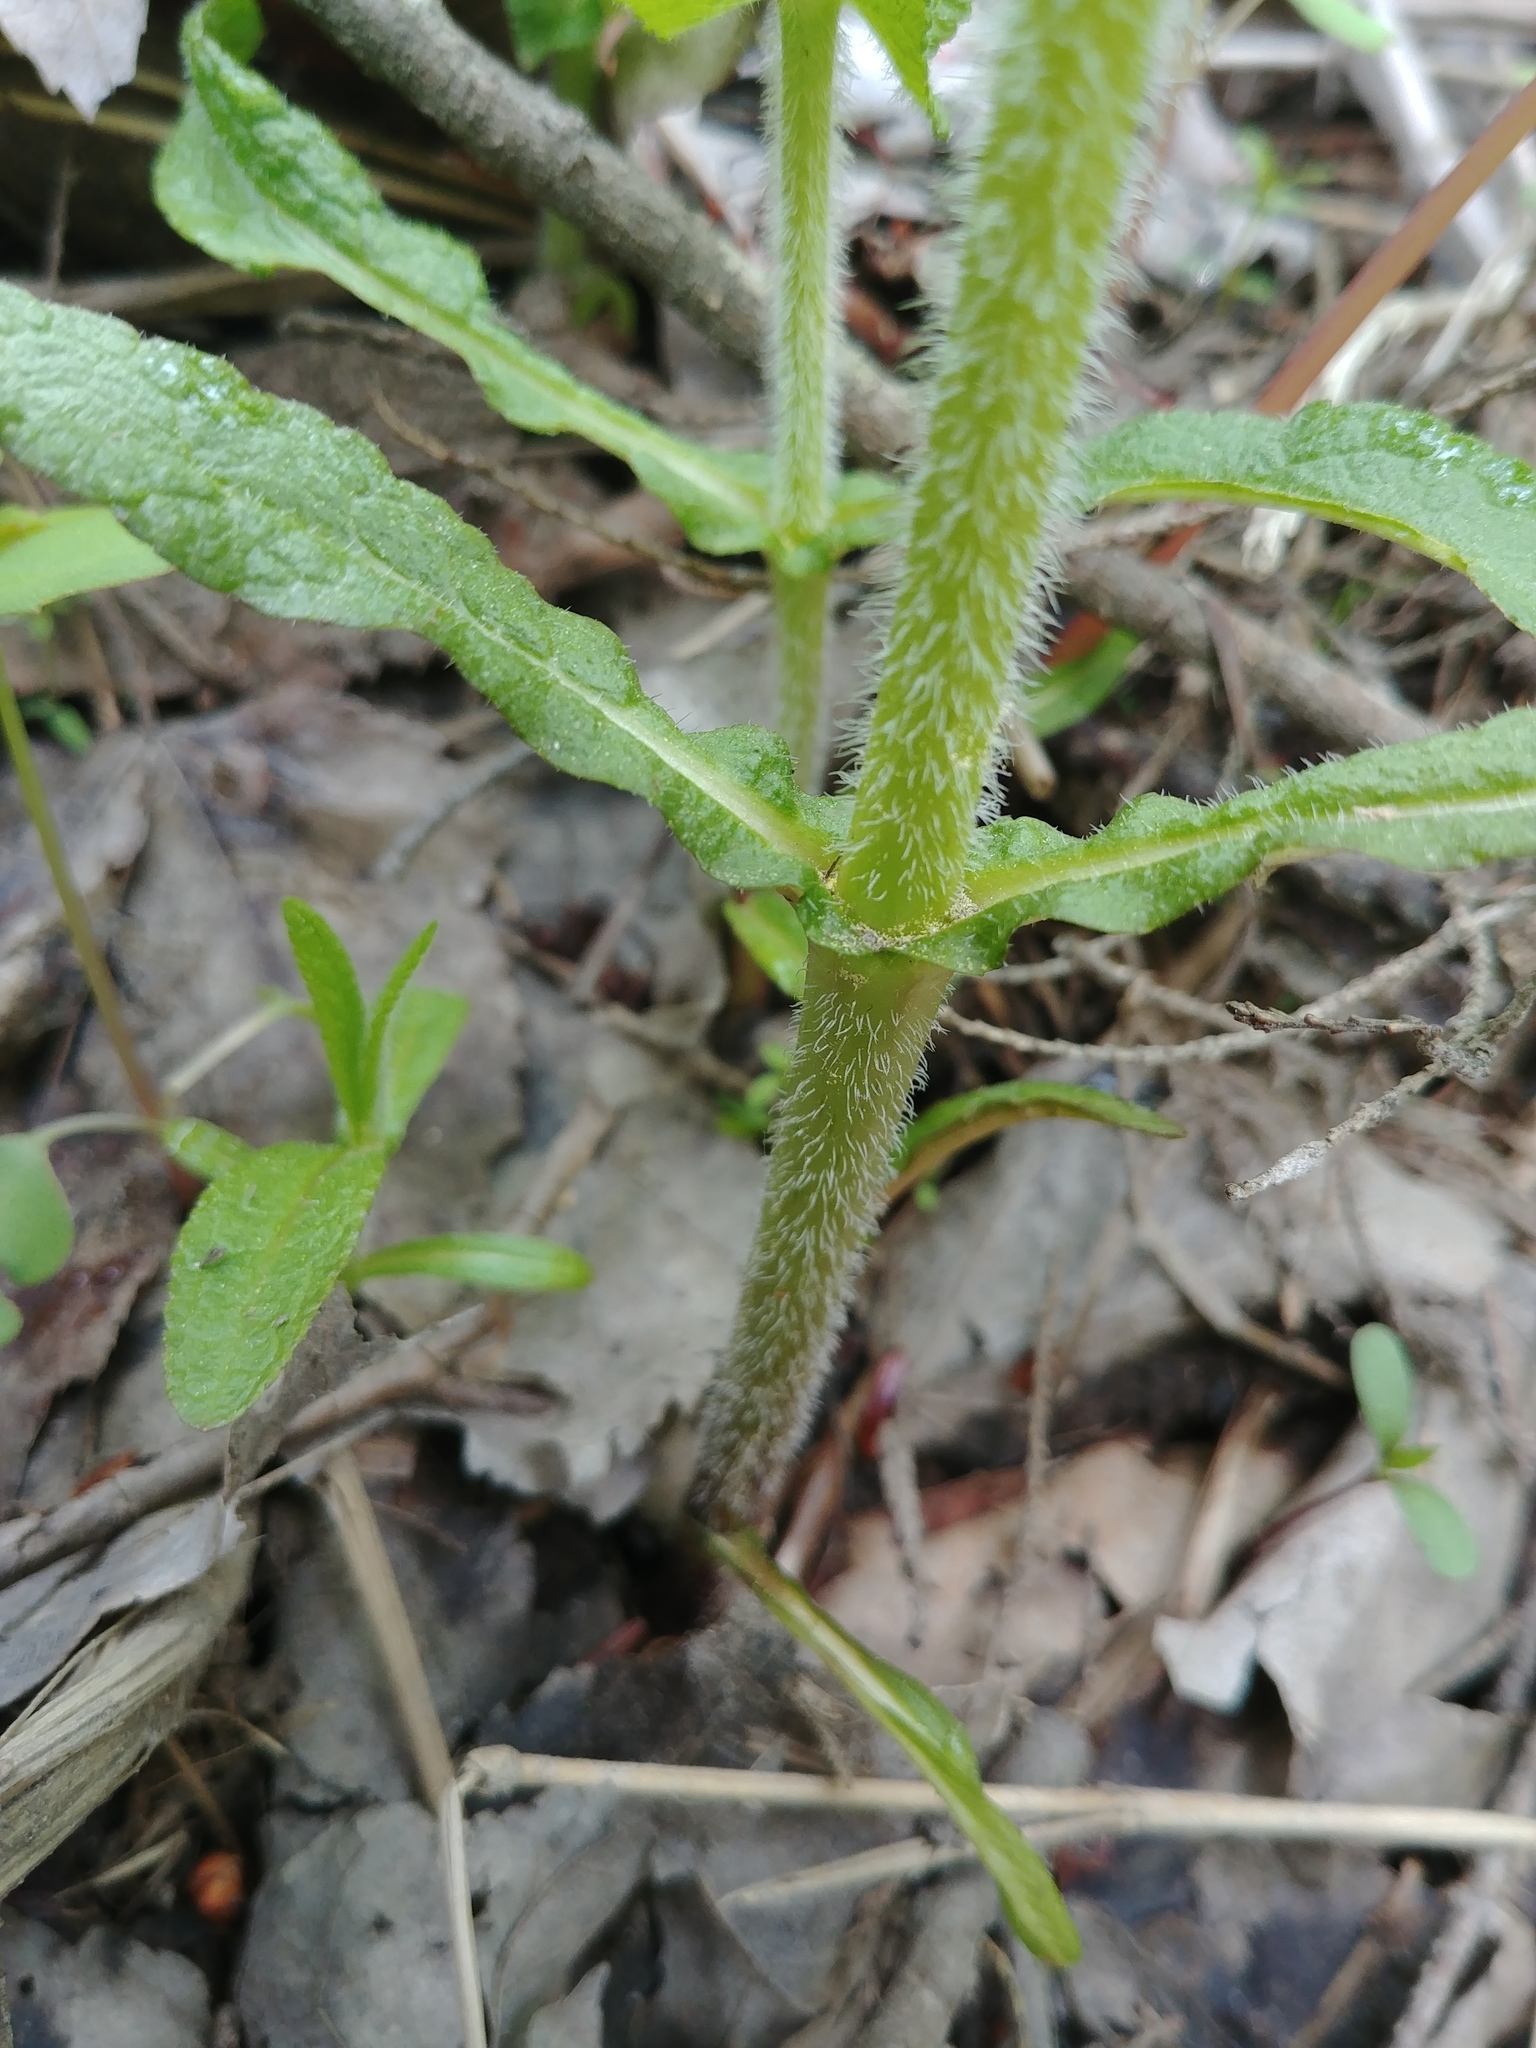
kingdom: Plantae
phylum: Tracheophyta
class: Magnoliopsida
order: Asterales
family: Asteraceae
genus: Eupatorium
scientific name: Eupatorium perfoliatum
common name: Boneset
